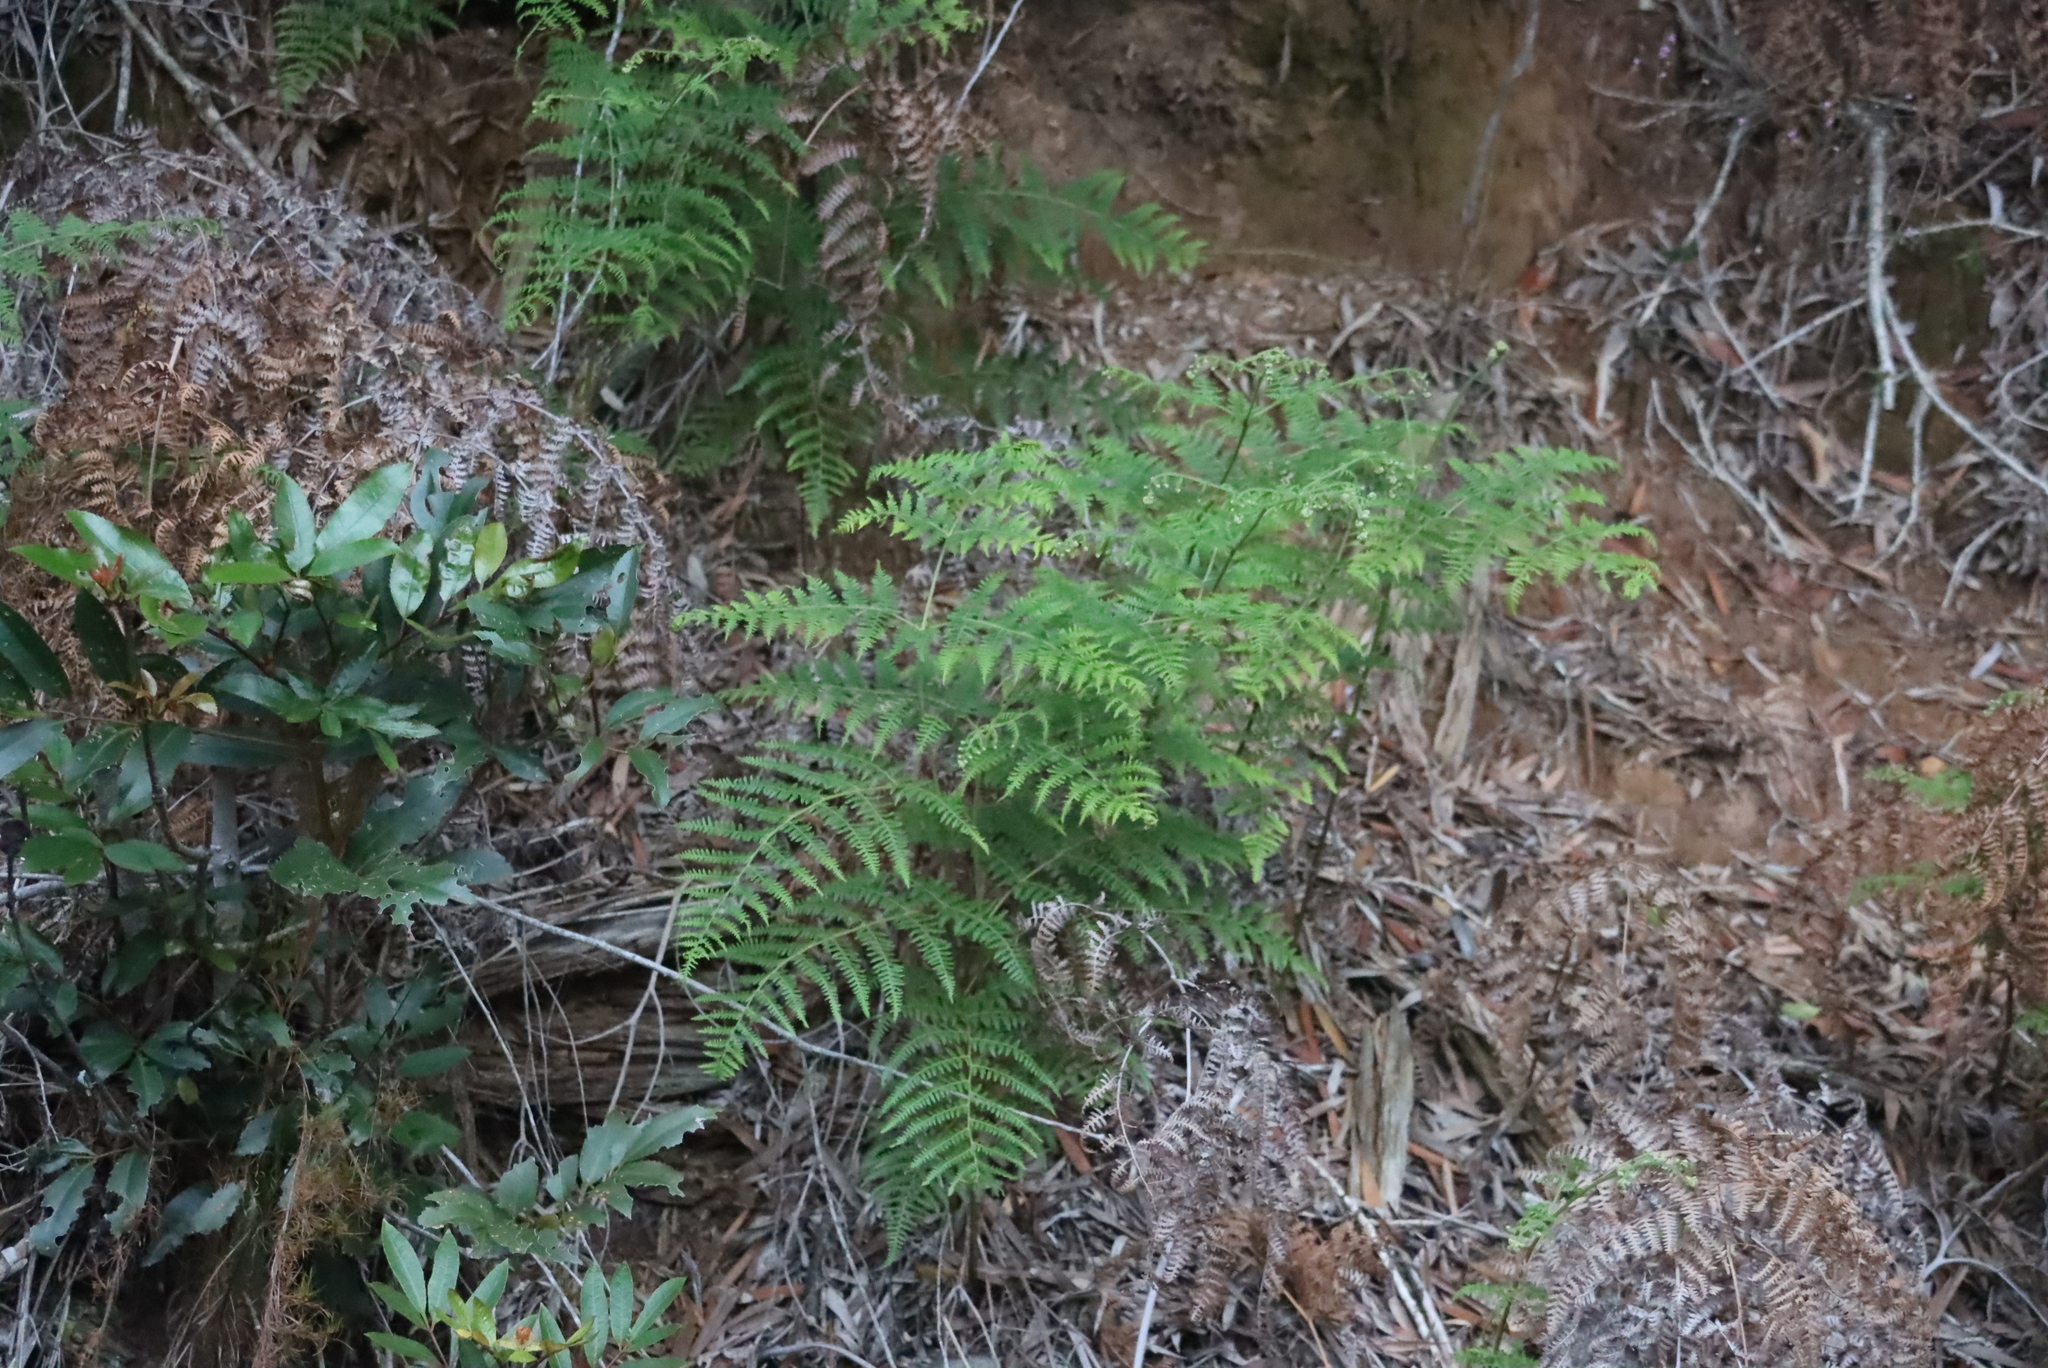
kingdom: Plantae
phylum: Tracheophyta
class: Polypodiopsida
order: Polypodiales
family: Dennstaedtiaceae
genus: Pteridium
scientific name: Pteridium aquilinum
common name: Bracken
